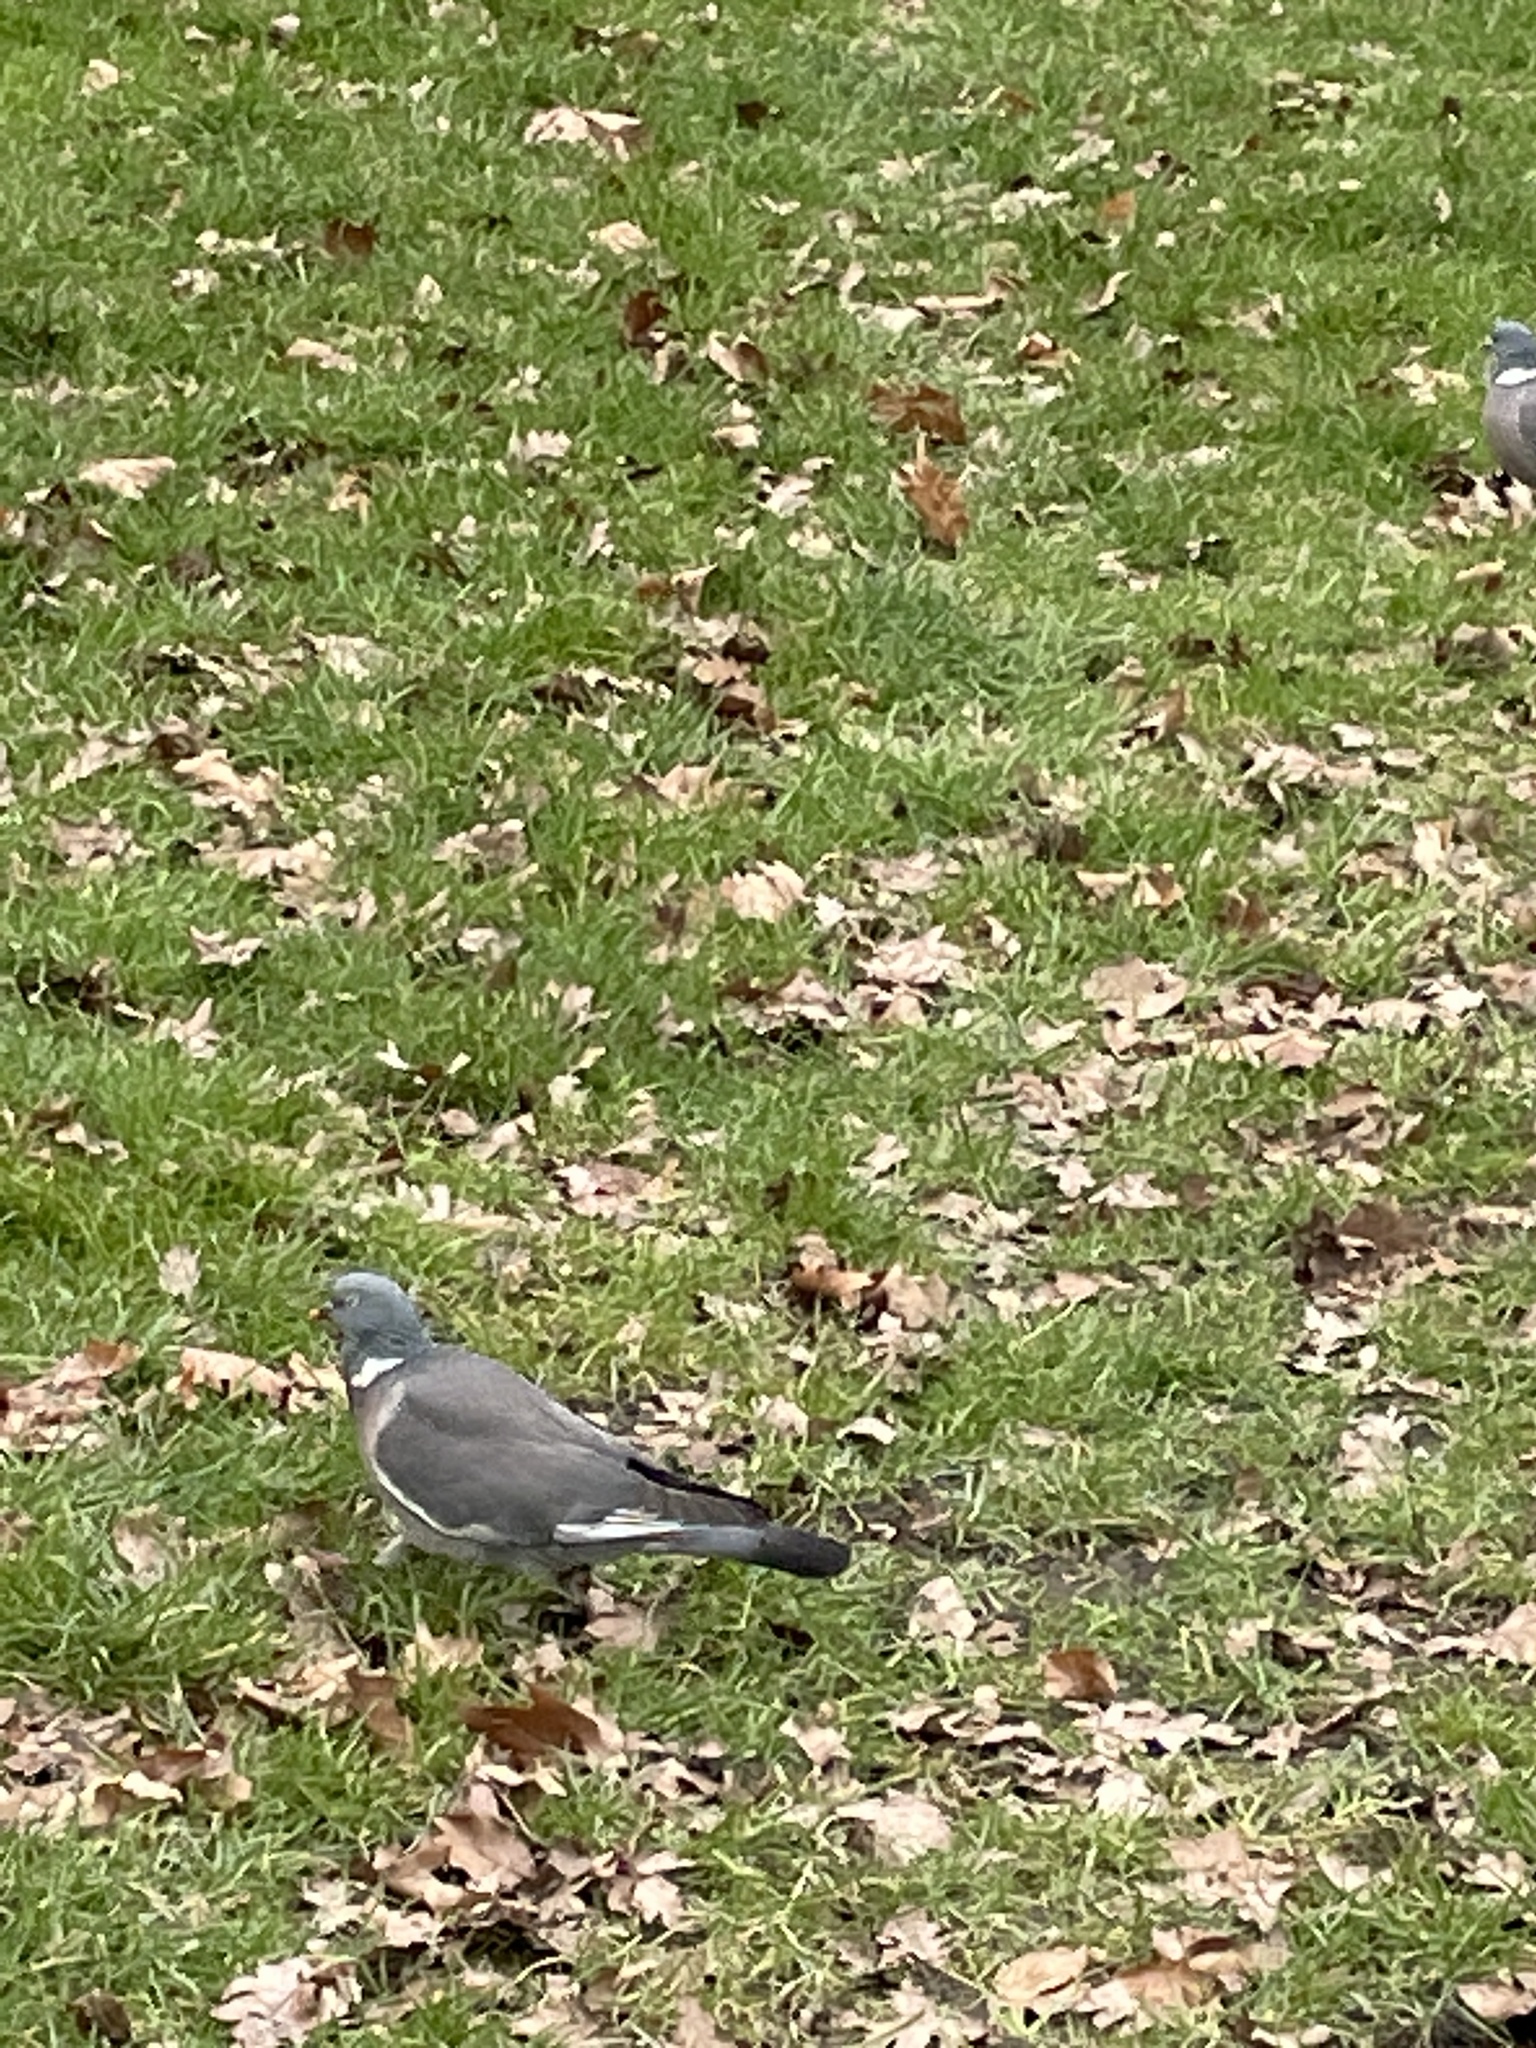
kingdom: Animalia
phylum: Chordata
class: Aves
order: Columbiformes
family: Columbidae
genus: Columba
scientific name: Columba palumbus
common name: Common wood pigeon
